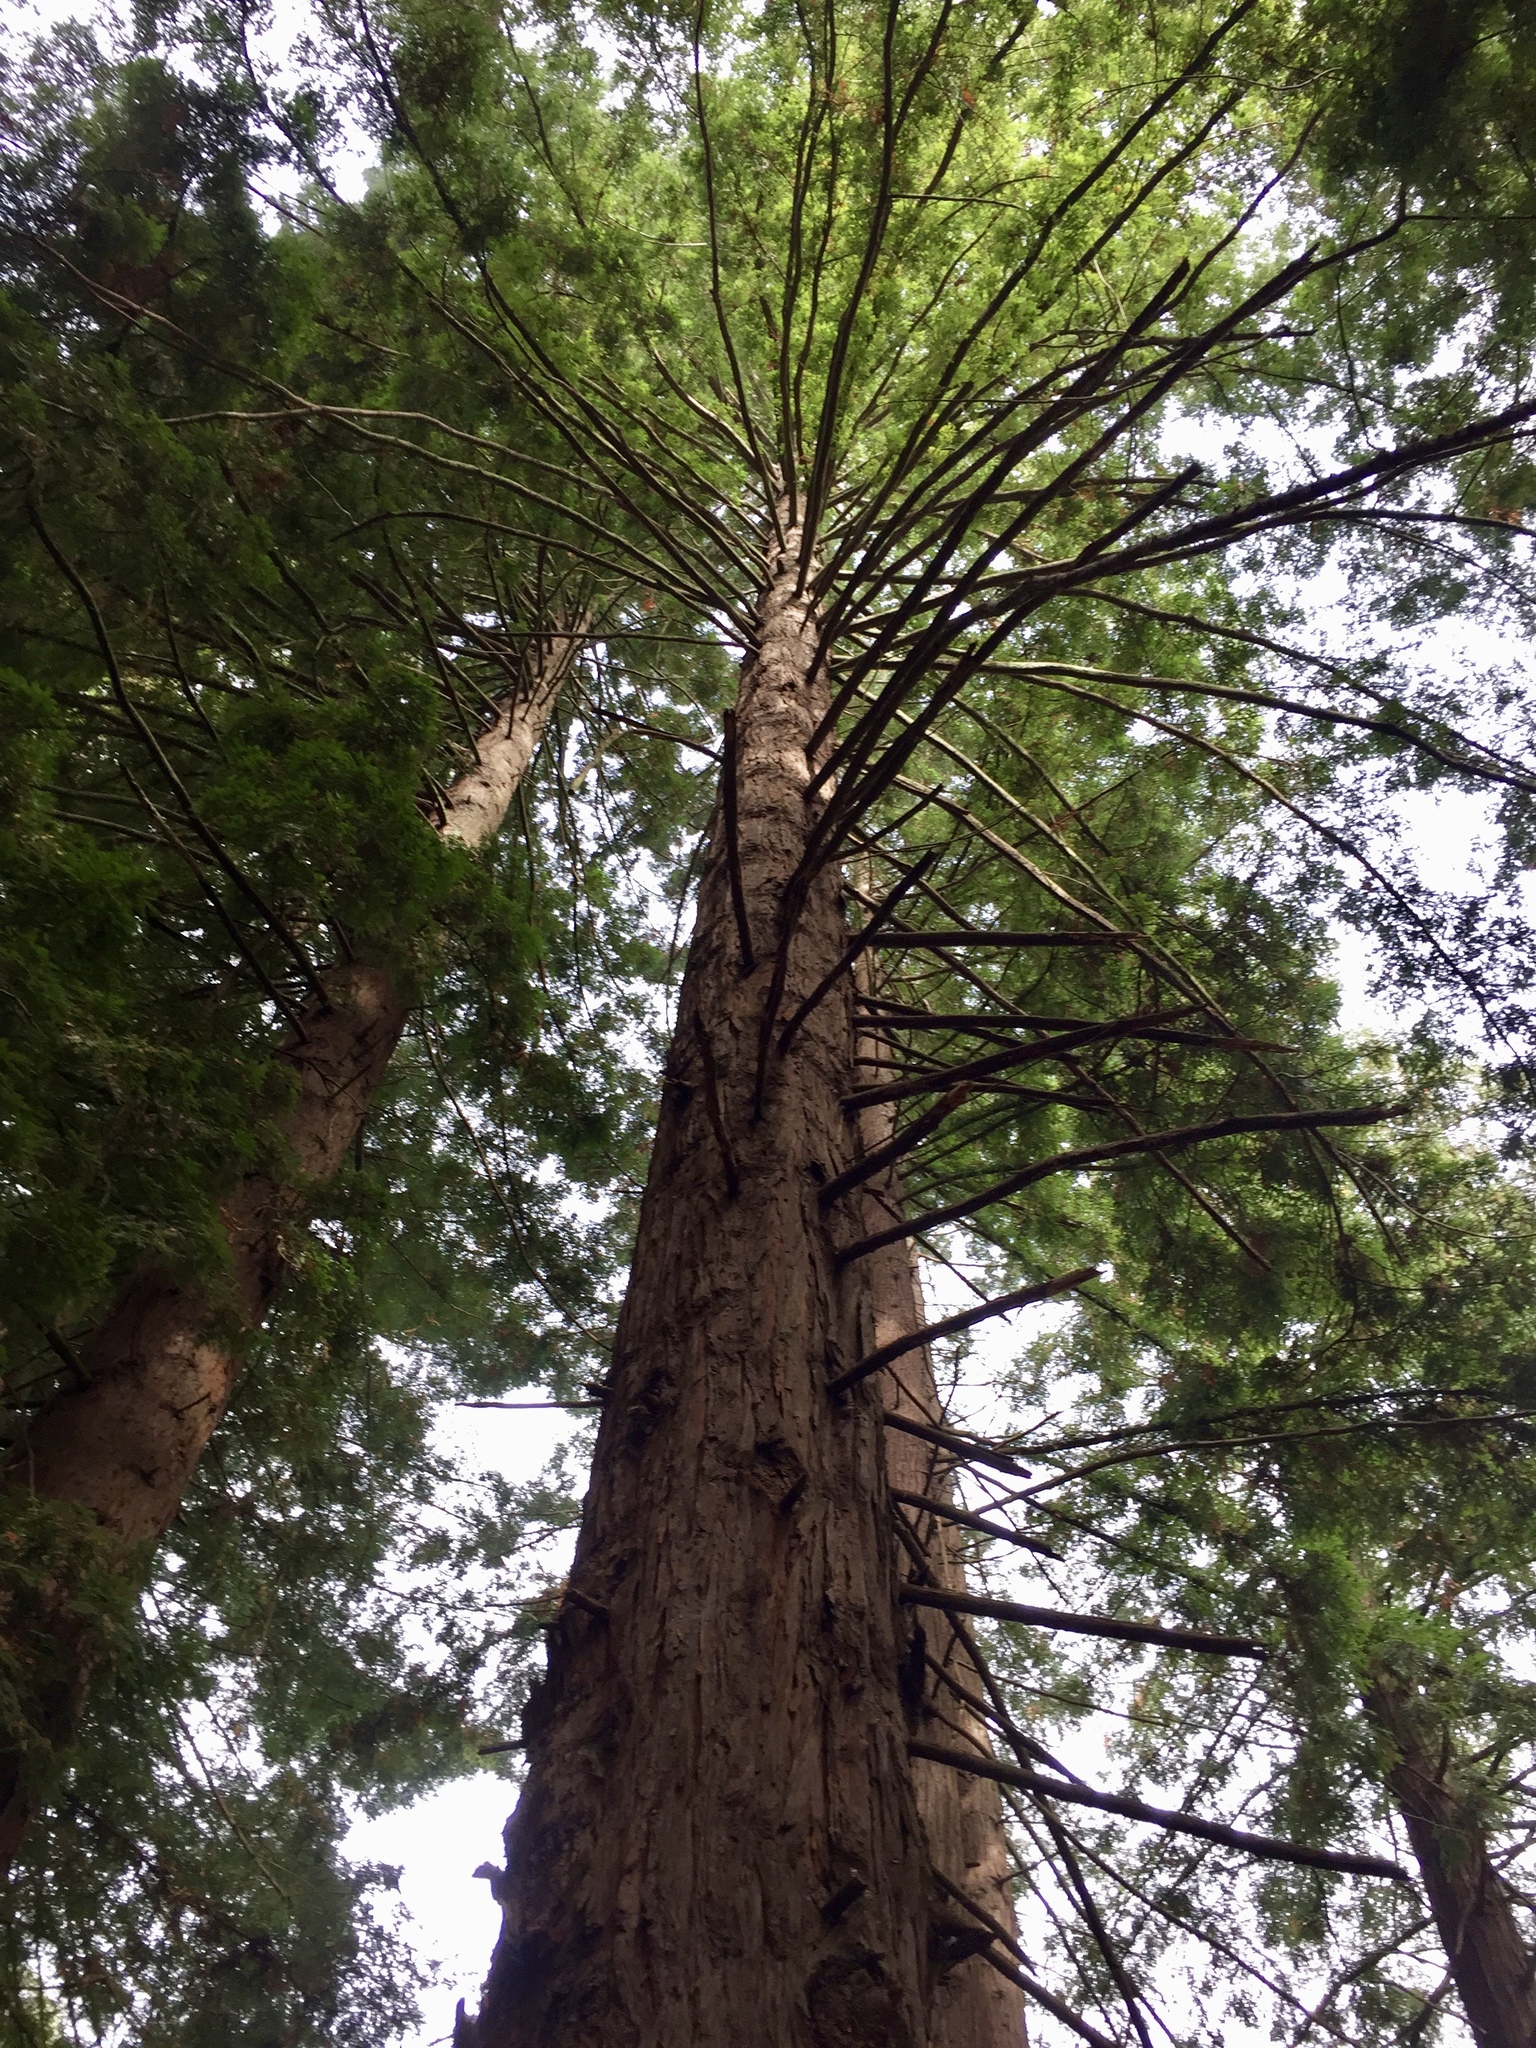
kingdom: Plantae
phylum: Tracheophyta
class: Pinopsida
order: Pinales
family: Cupressaceae
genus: Sequoia
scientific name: Sequoia sempervirens
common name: Coast redwood
